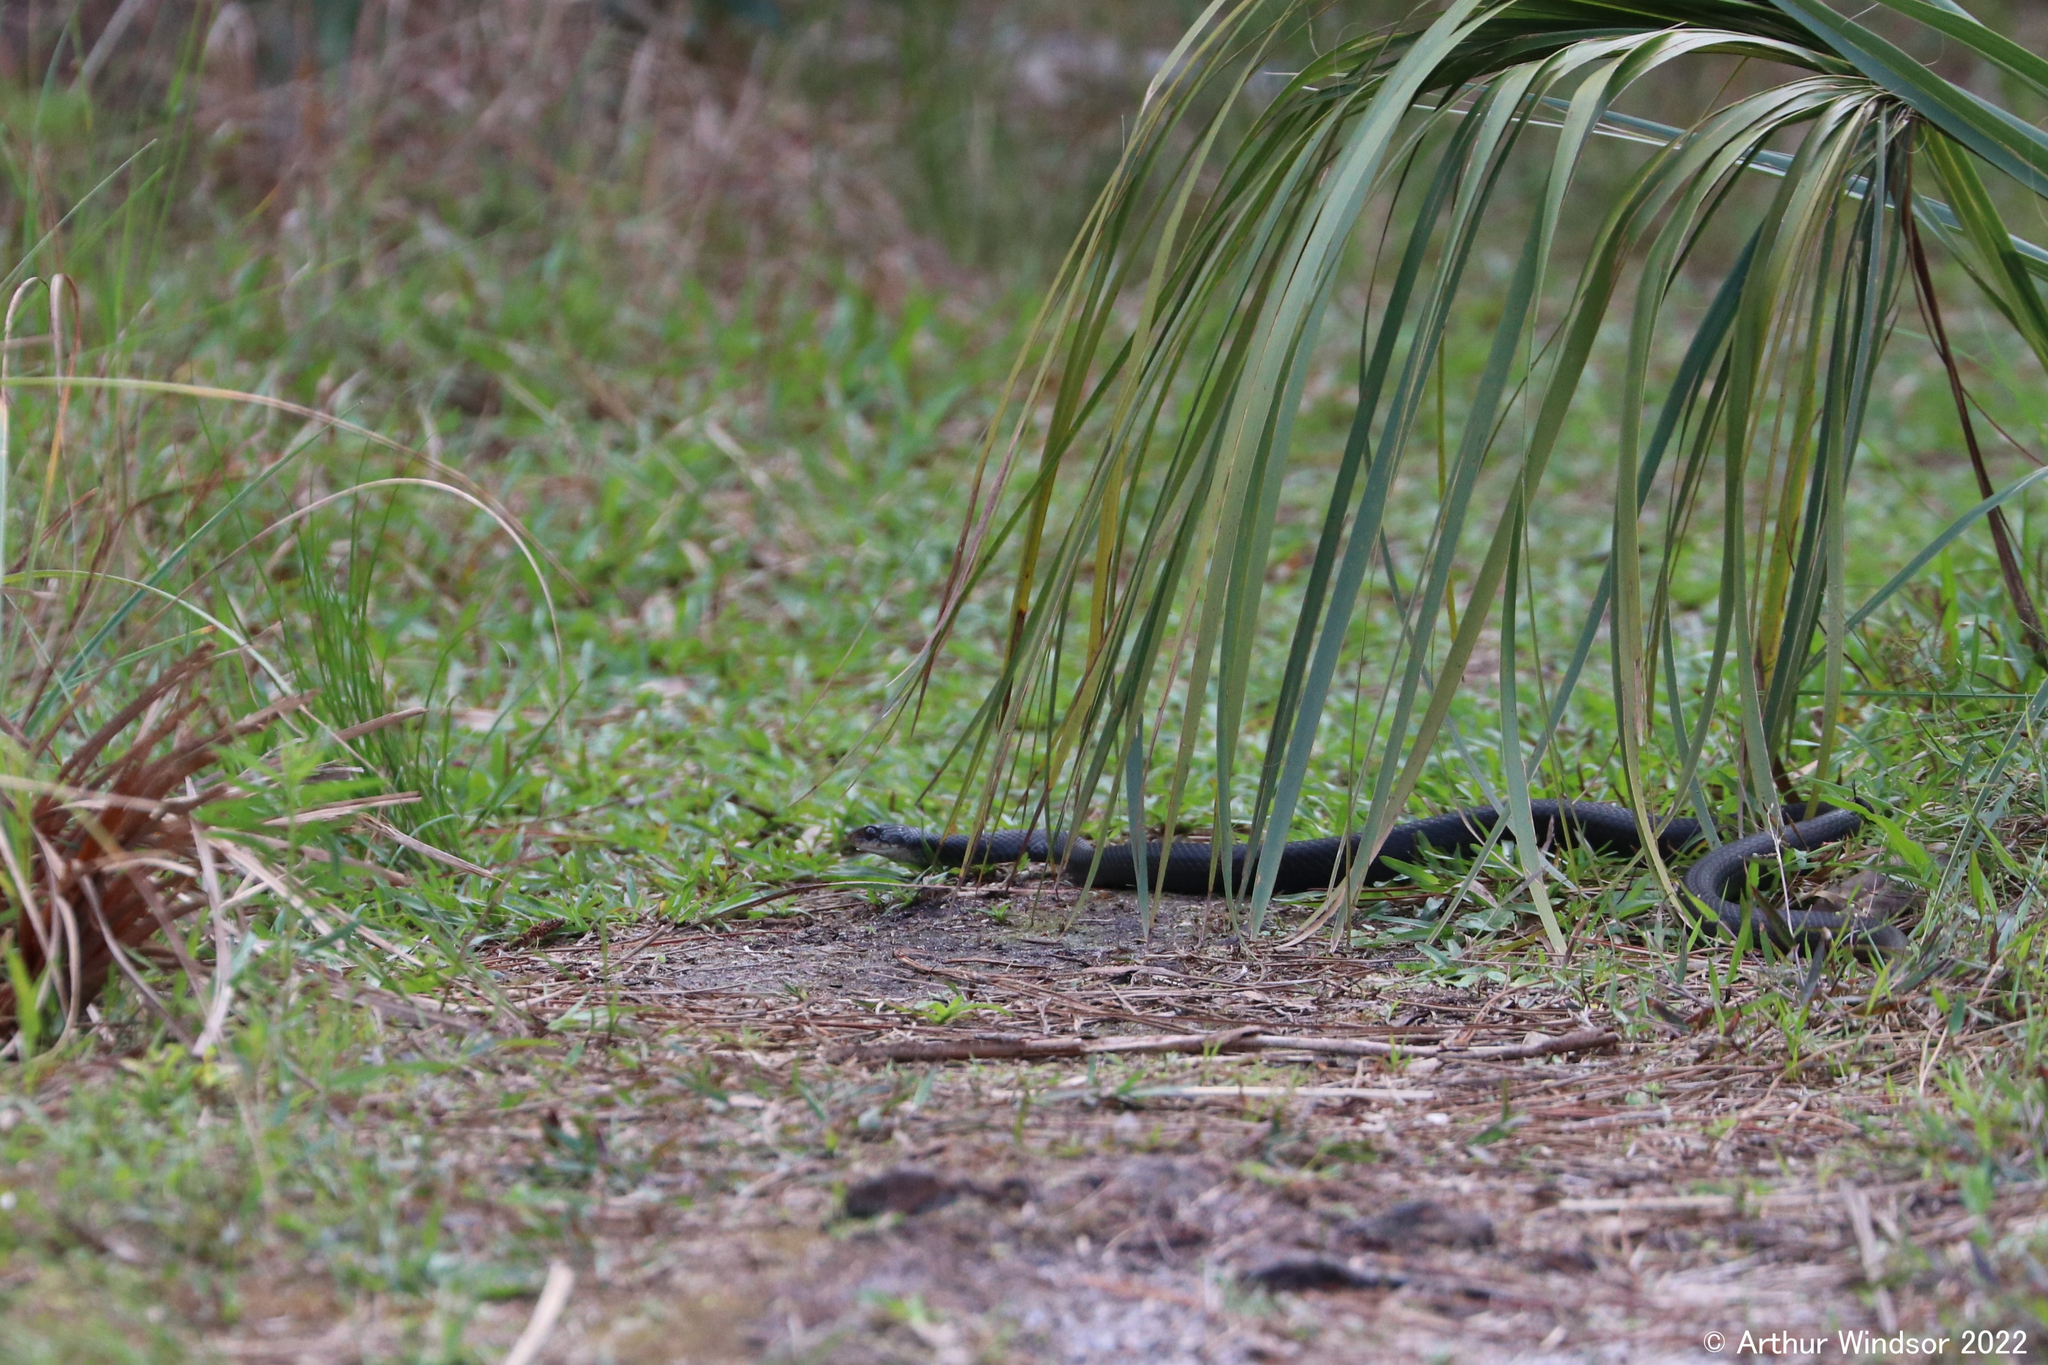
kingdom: Animalia
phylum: Chordata
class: Squamata
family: Colubridae
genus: Coluber
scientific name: Coluber constrictor
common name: Eastern racer
